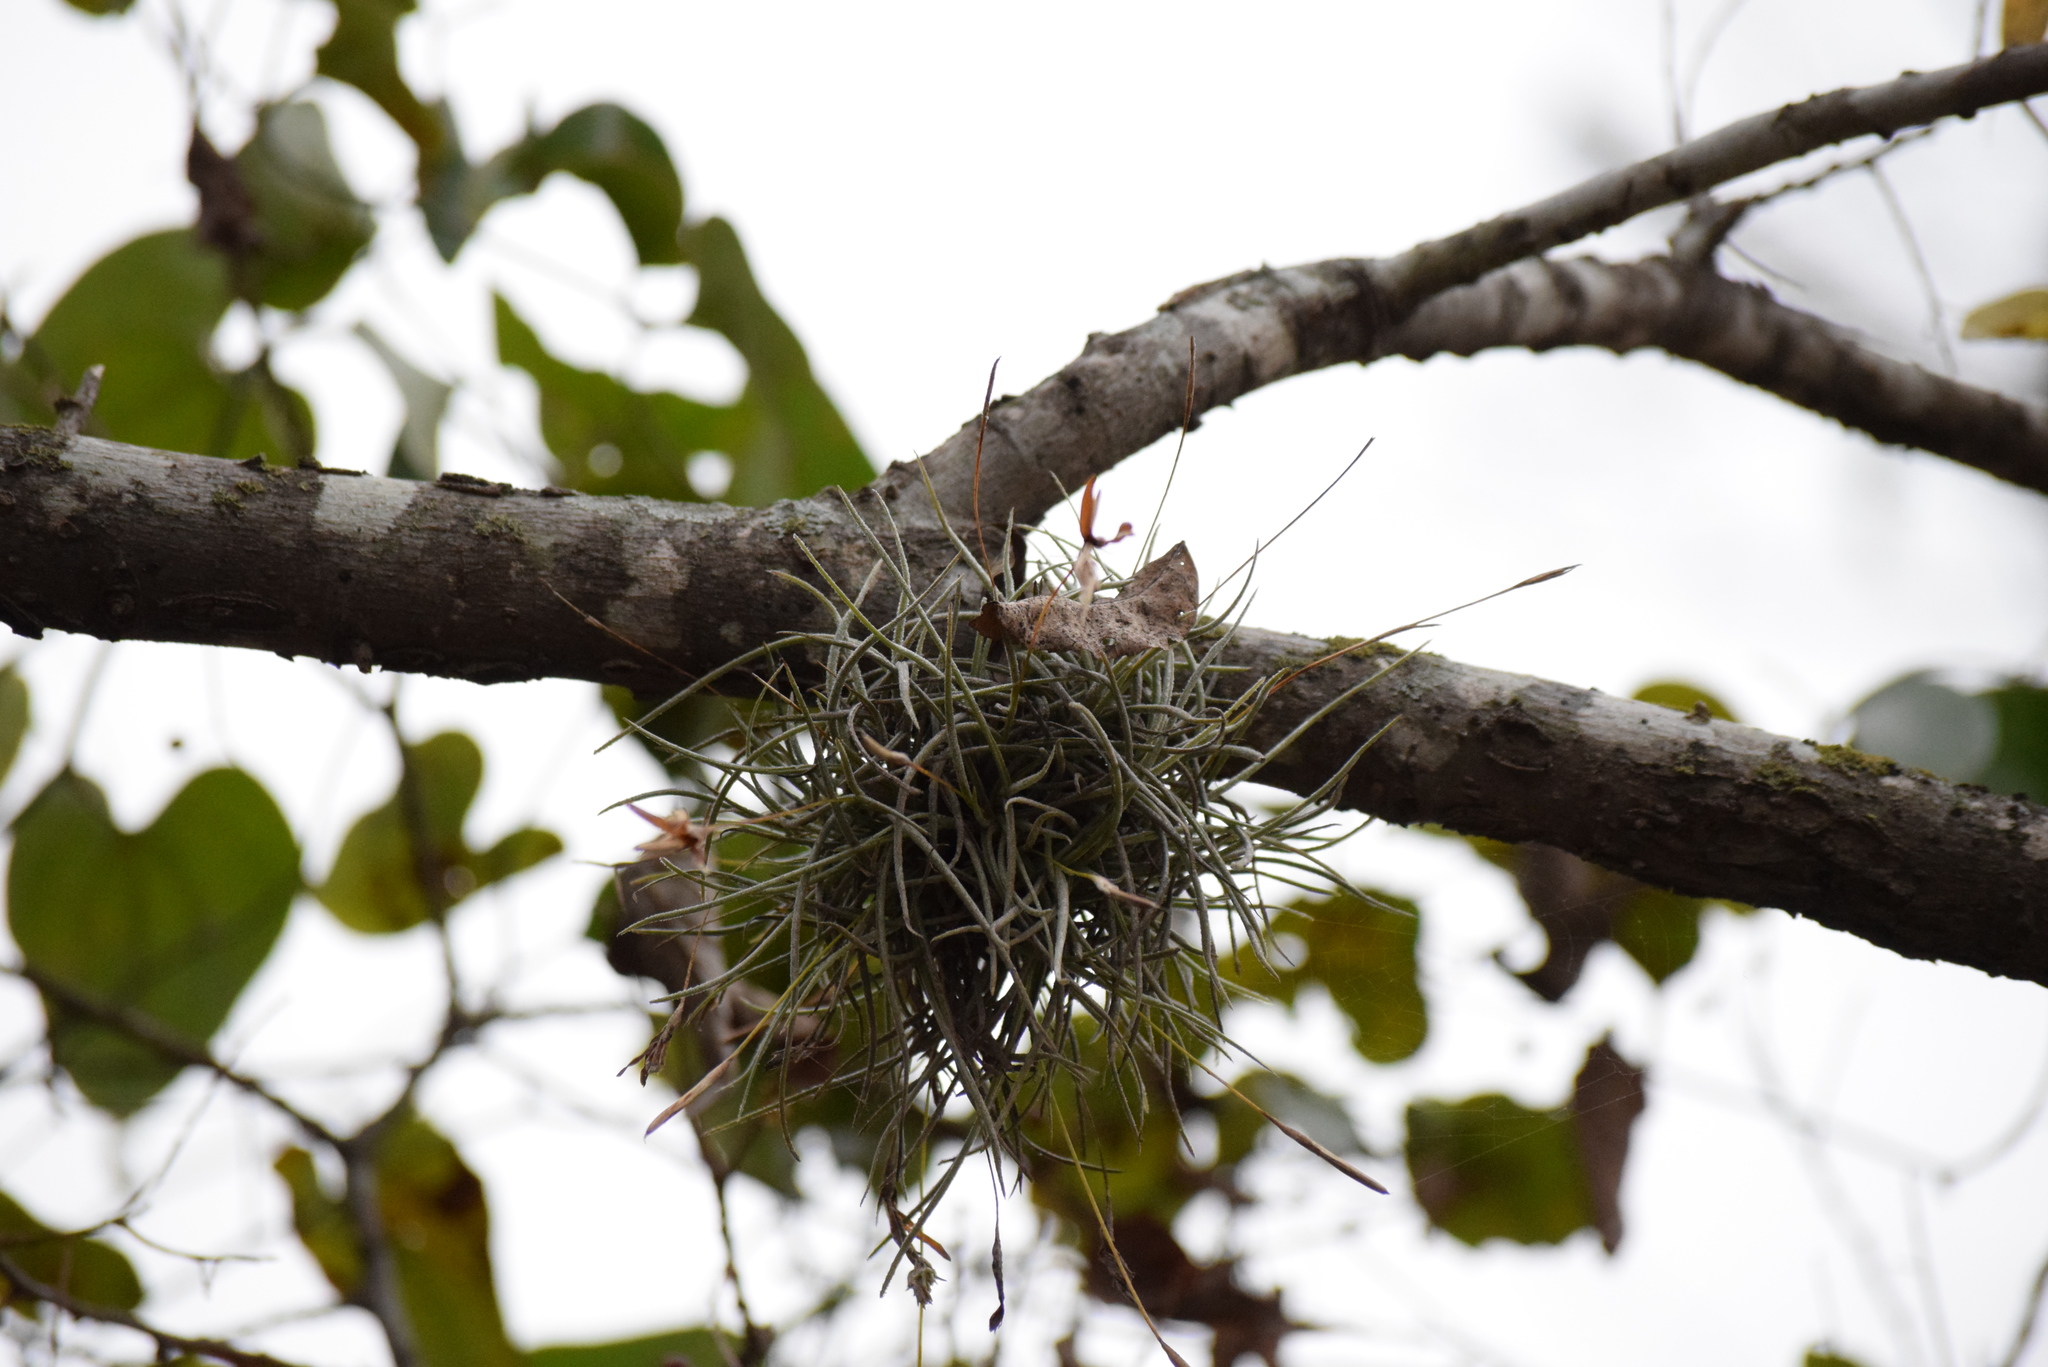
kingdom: Plantae
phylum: Tracheophyta
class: Liliopsida
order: Poales
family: Bromeliaceae
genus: Tillandsia
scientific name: Tillandsia recurvata
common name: Small ballmoss
